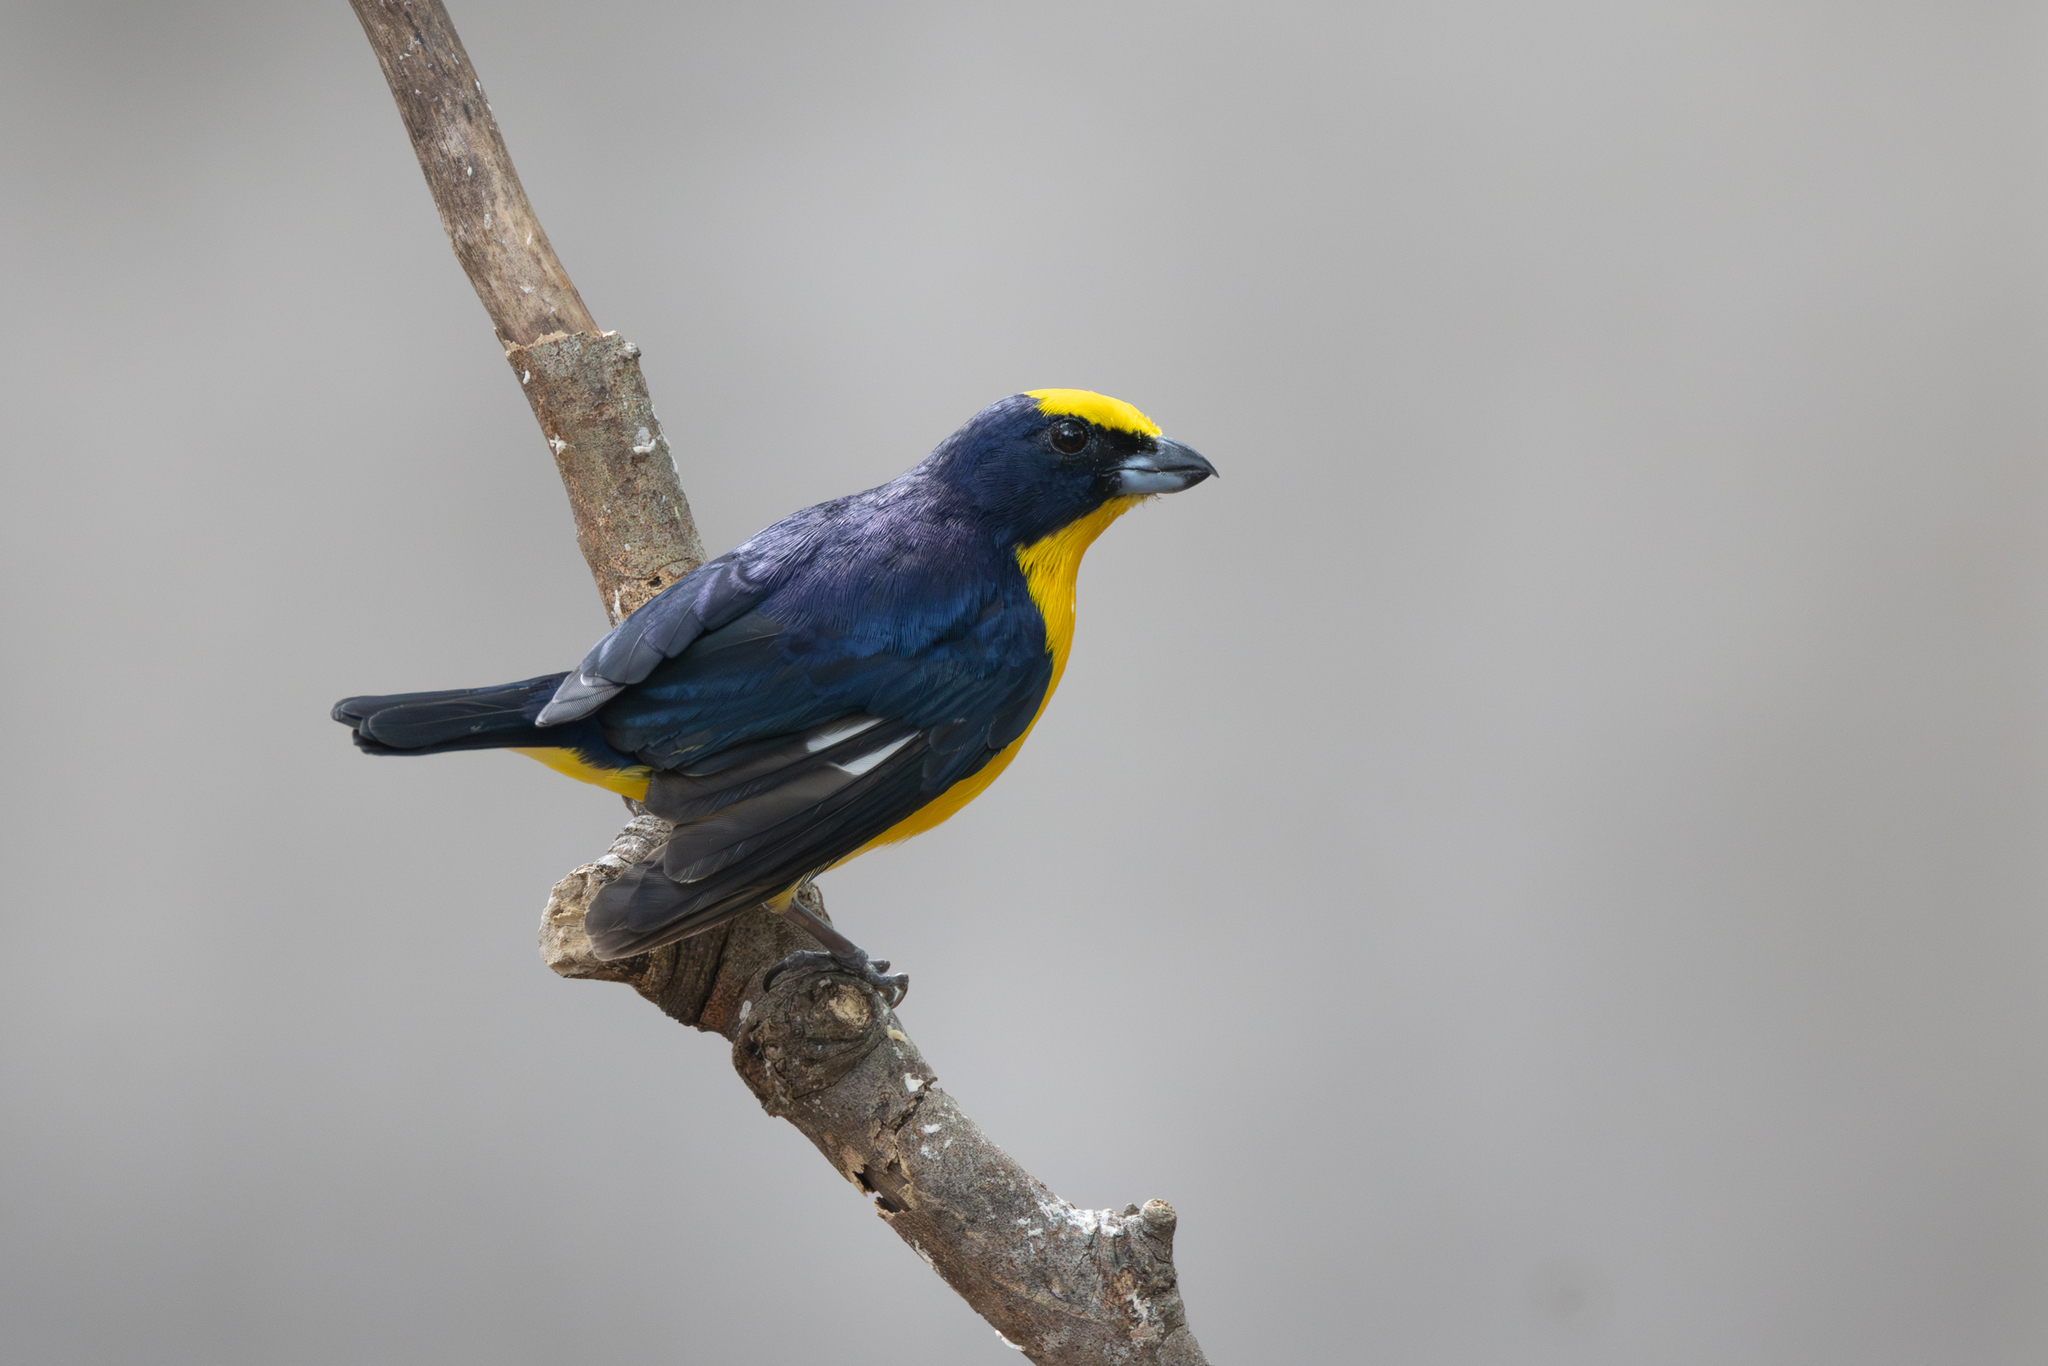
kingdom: Animalia
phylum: Chordata
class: Aves
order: Passeriformes
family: Fringillidae
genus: Euphonia
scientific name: Euphonia laniirostris
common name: Thick-billed euphonia
